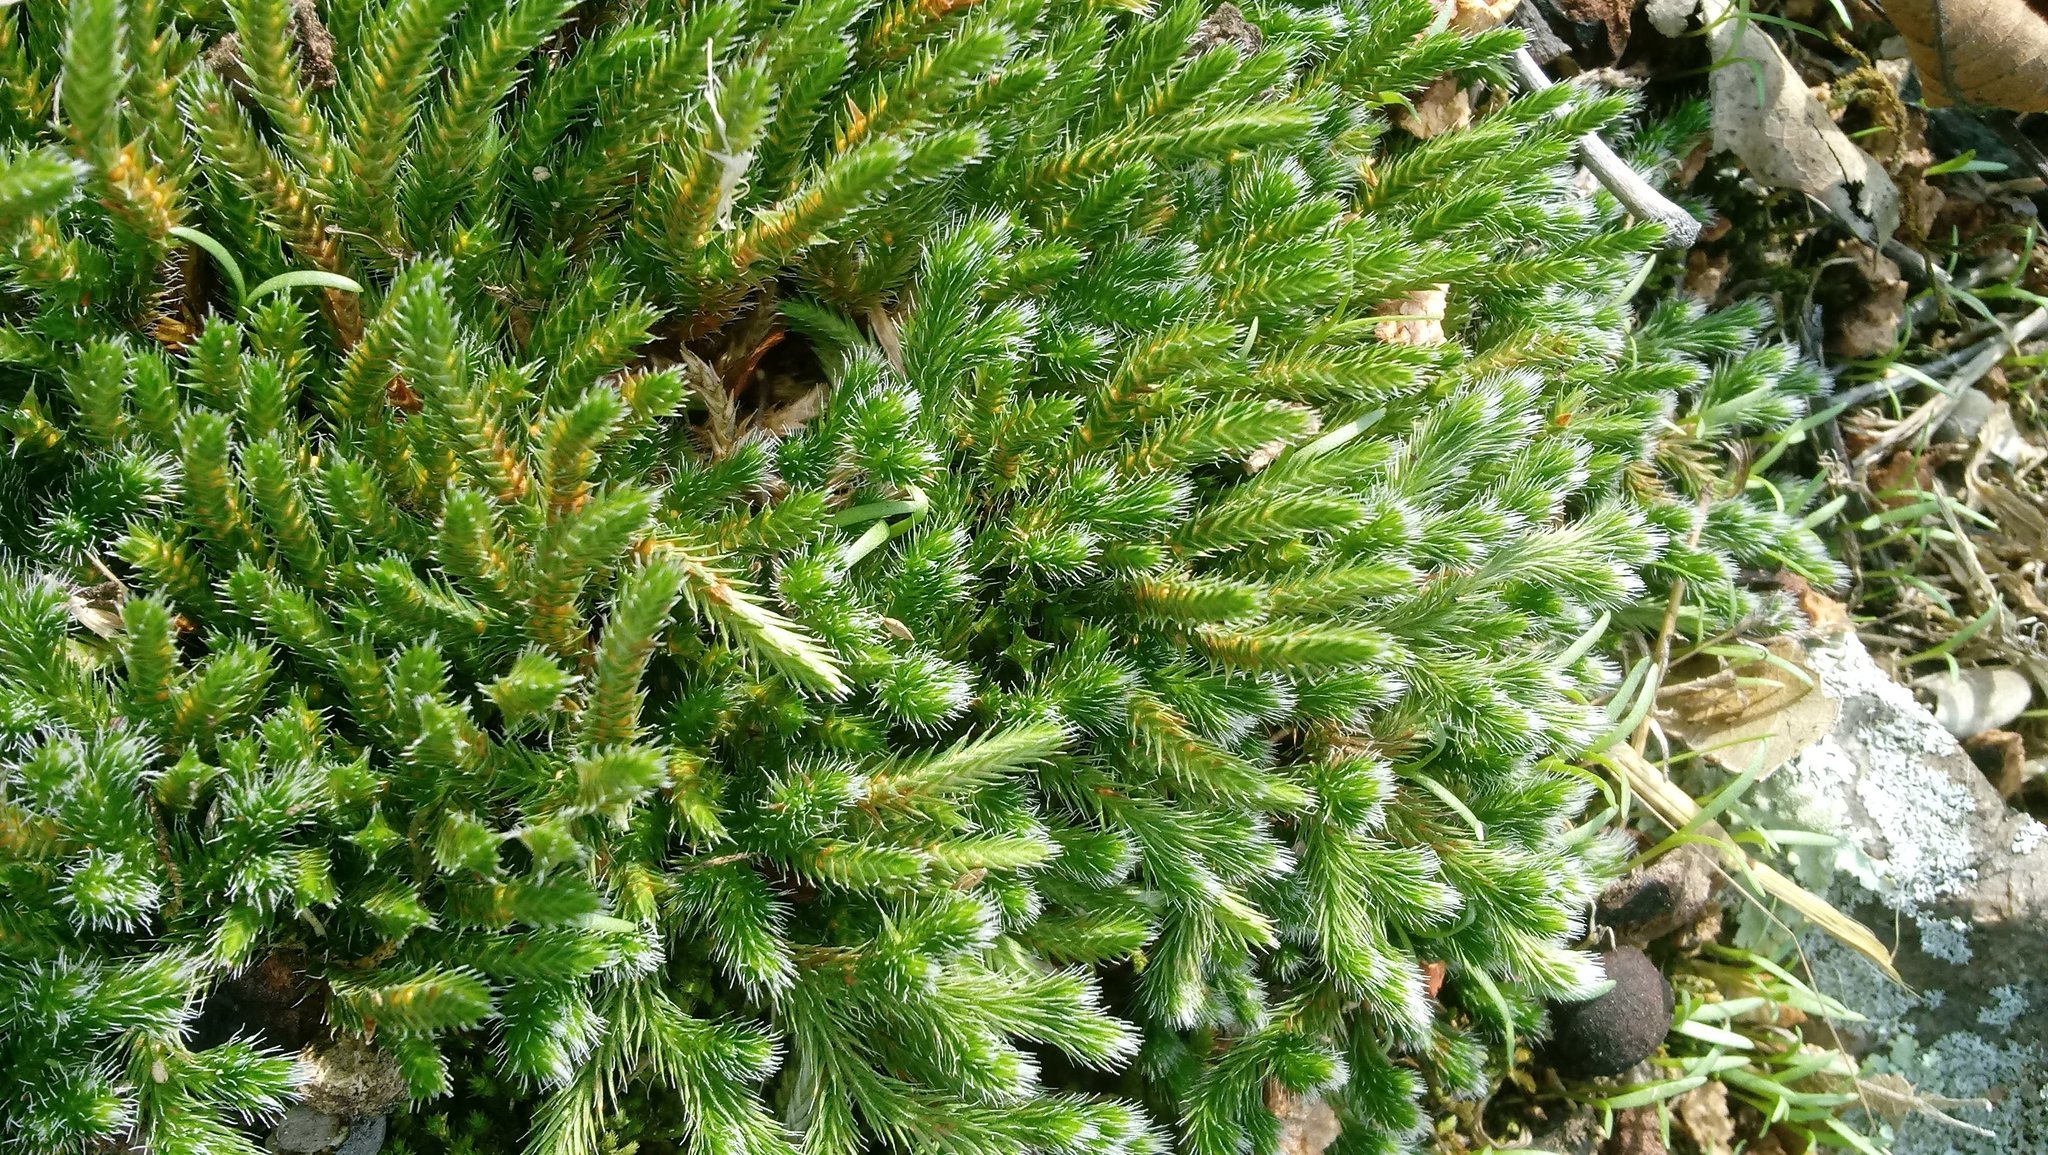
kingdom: Plantae
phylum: Tracheophyta
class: Lycopodiopsida
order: Selaginellales
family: Selaginellaceae
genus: Selaginella
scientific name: Selaginella rupestris
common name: Dwarf spikemoss
